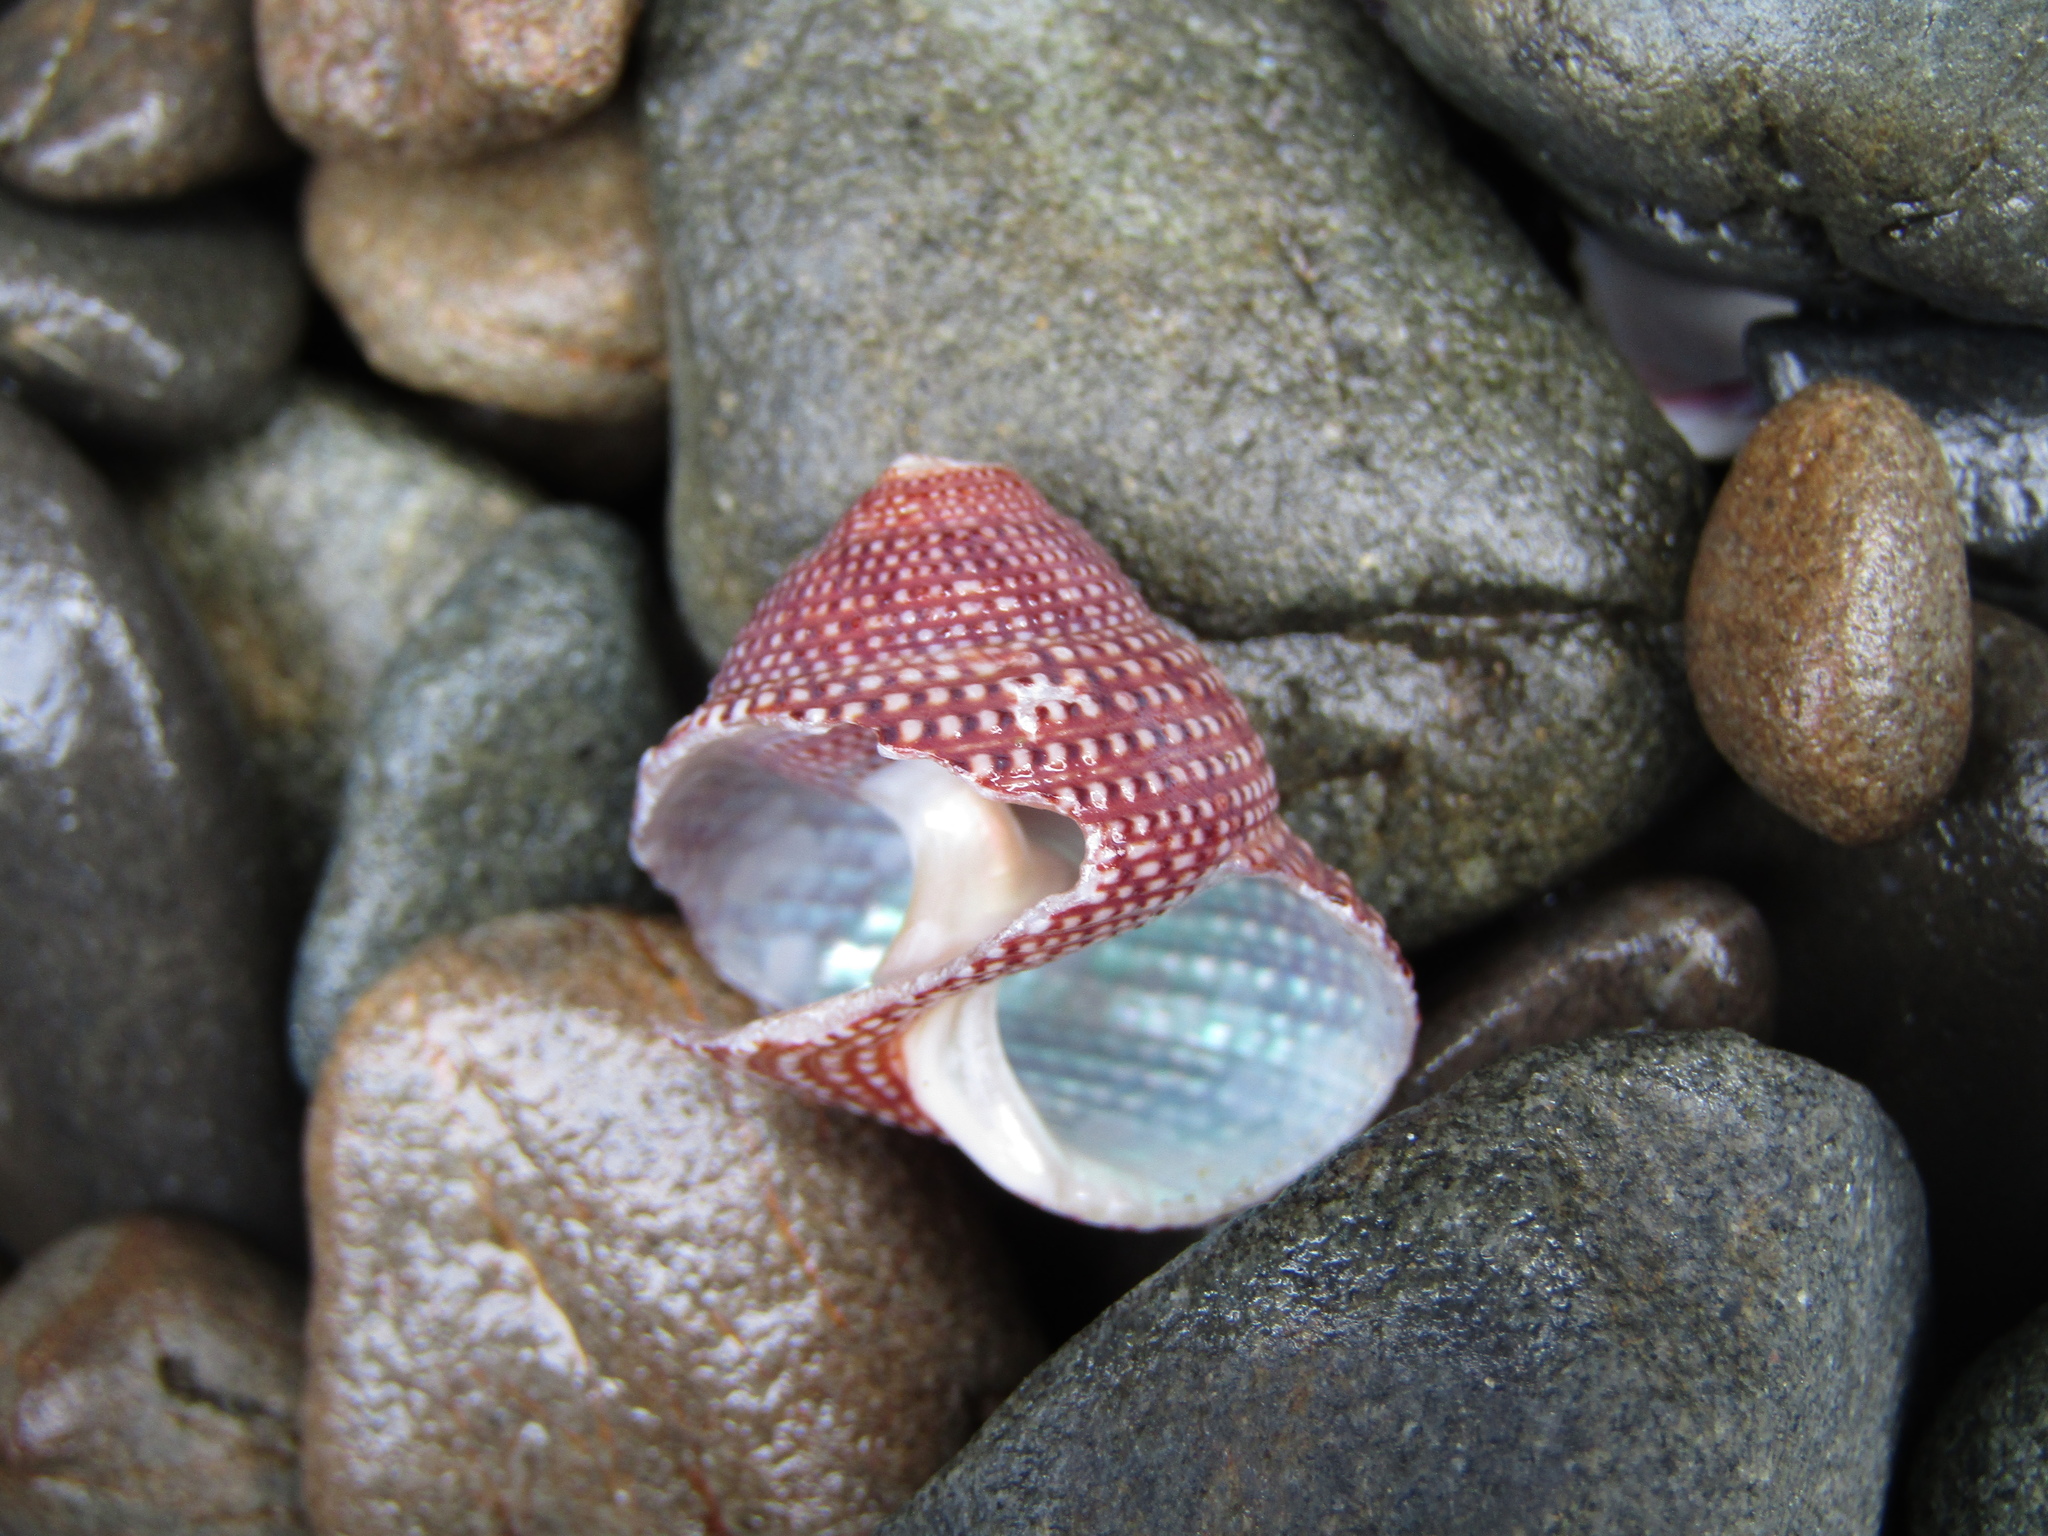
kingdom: Animalia
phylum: Mollusca
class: Gastropoda
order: Trochida
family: Calliostomatidae
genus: Maurea
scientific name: Maurea granti
